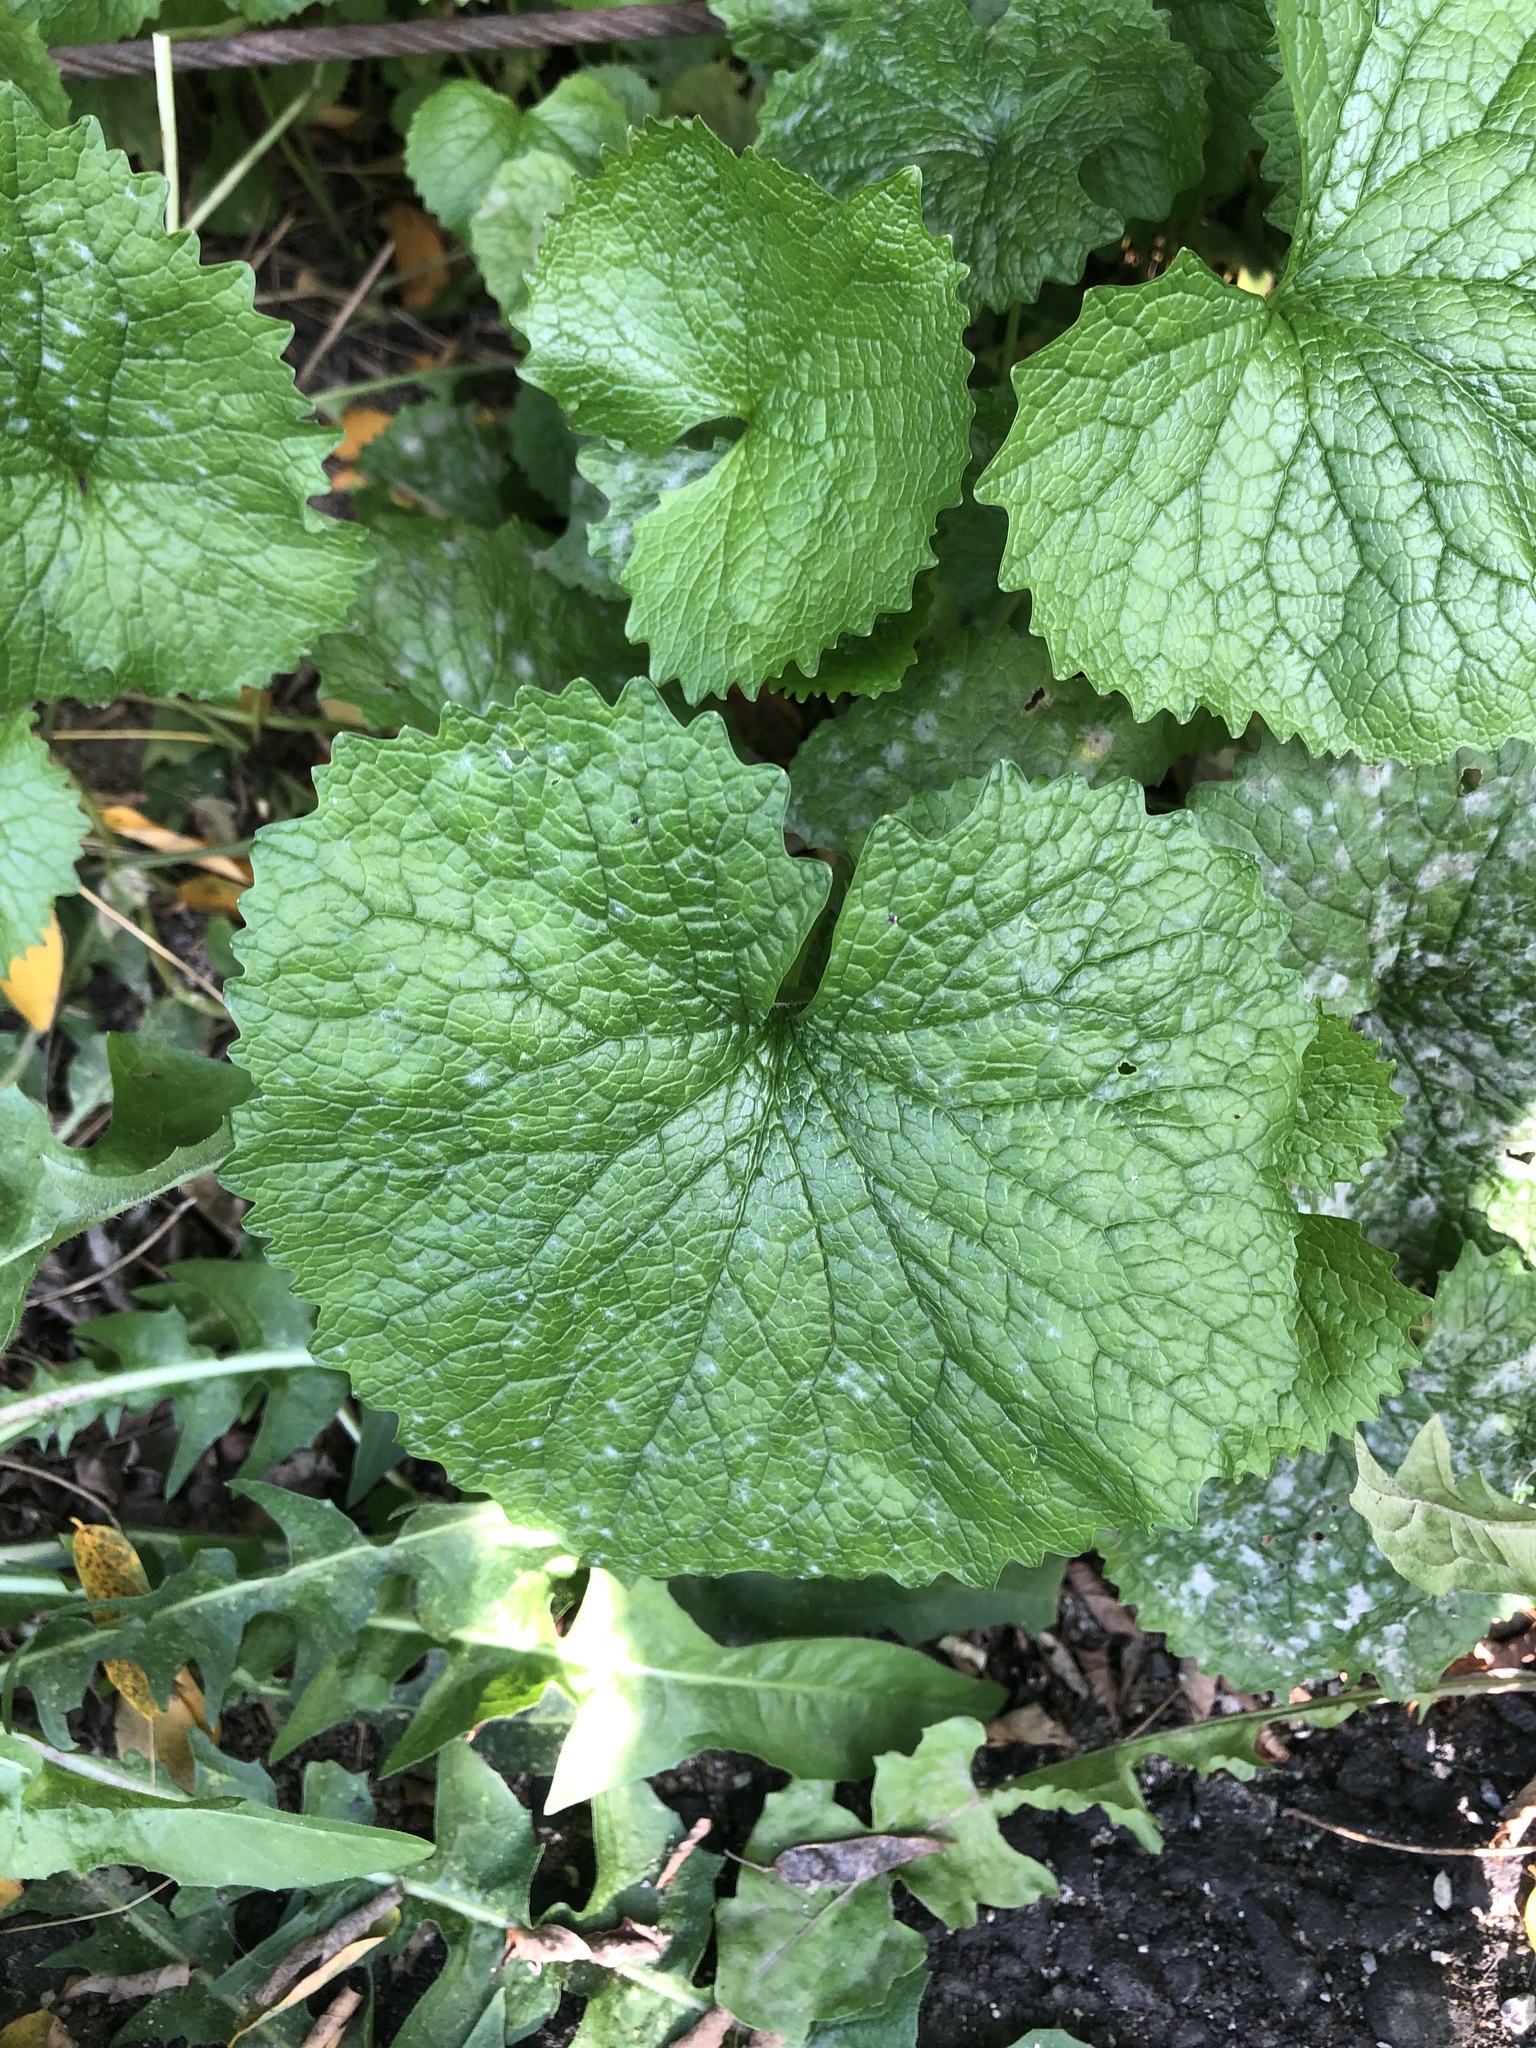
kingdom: Plantae
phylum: Tracheophyta
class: Magnoliopsida
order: Brassicales
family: Brassicaceae
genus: Alliaria
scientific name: Alliaria petiolata
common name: Garlic mustard
